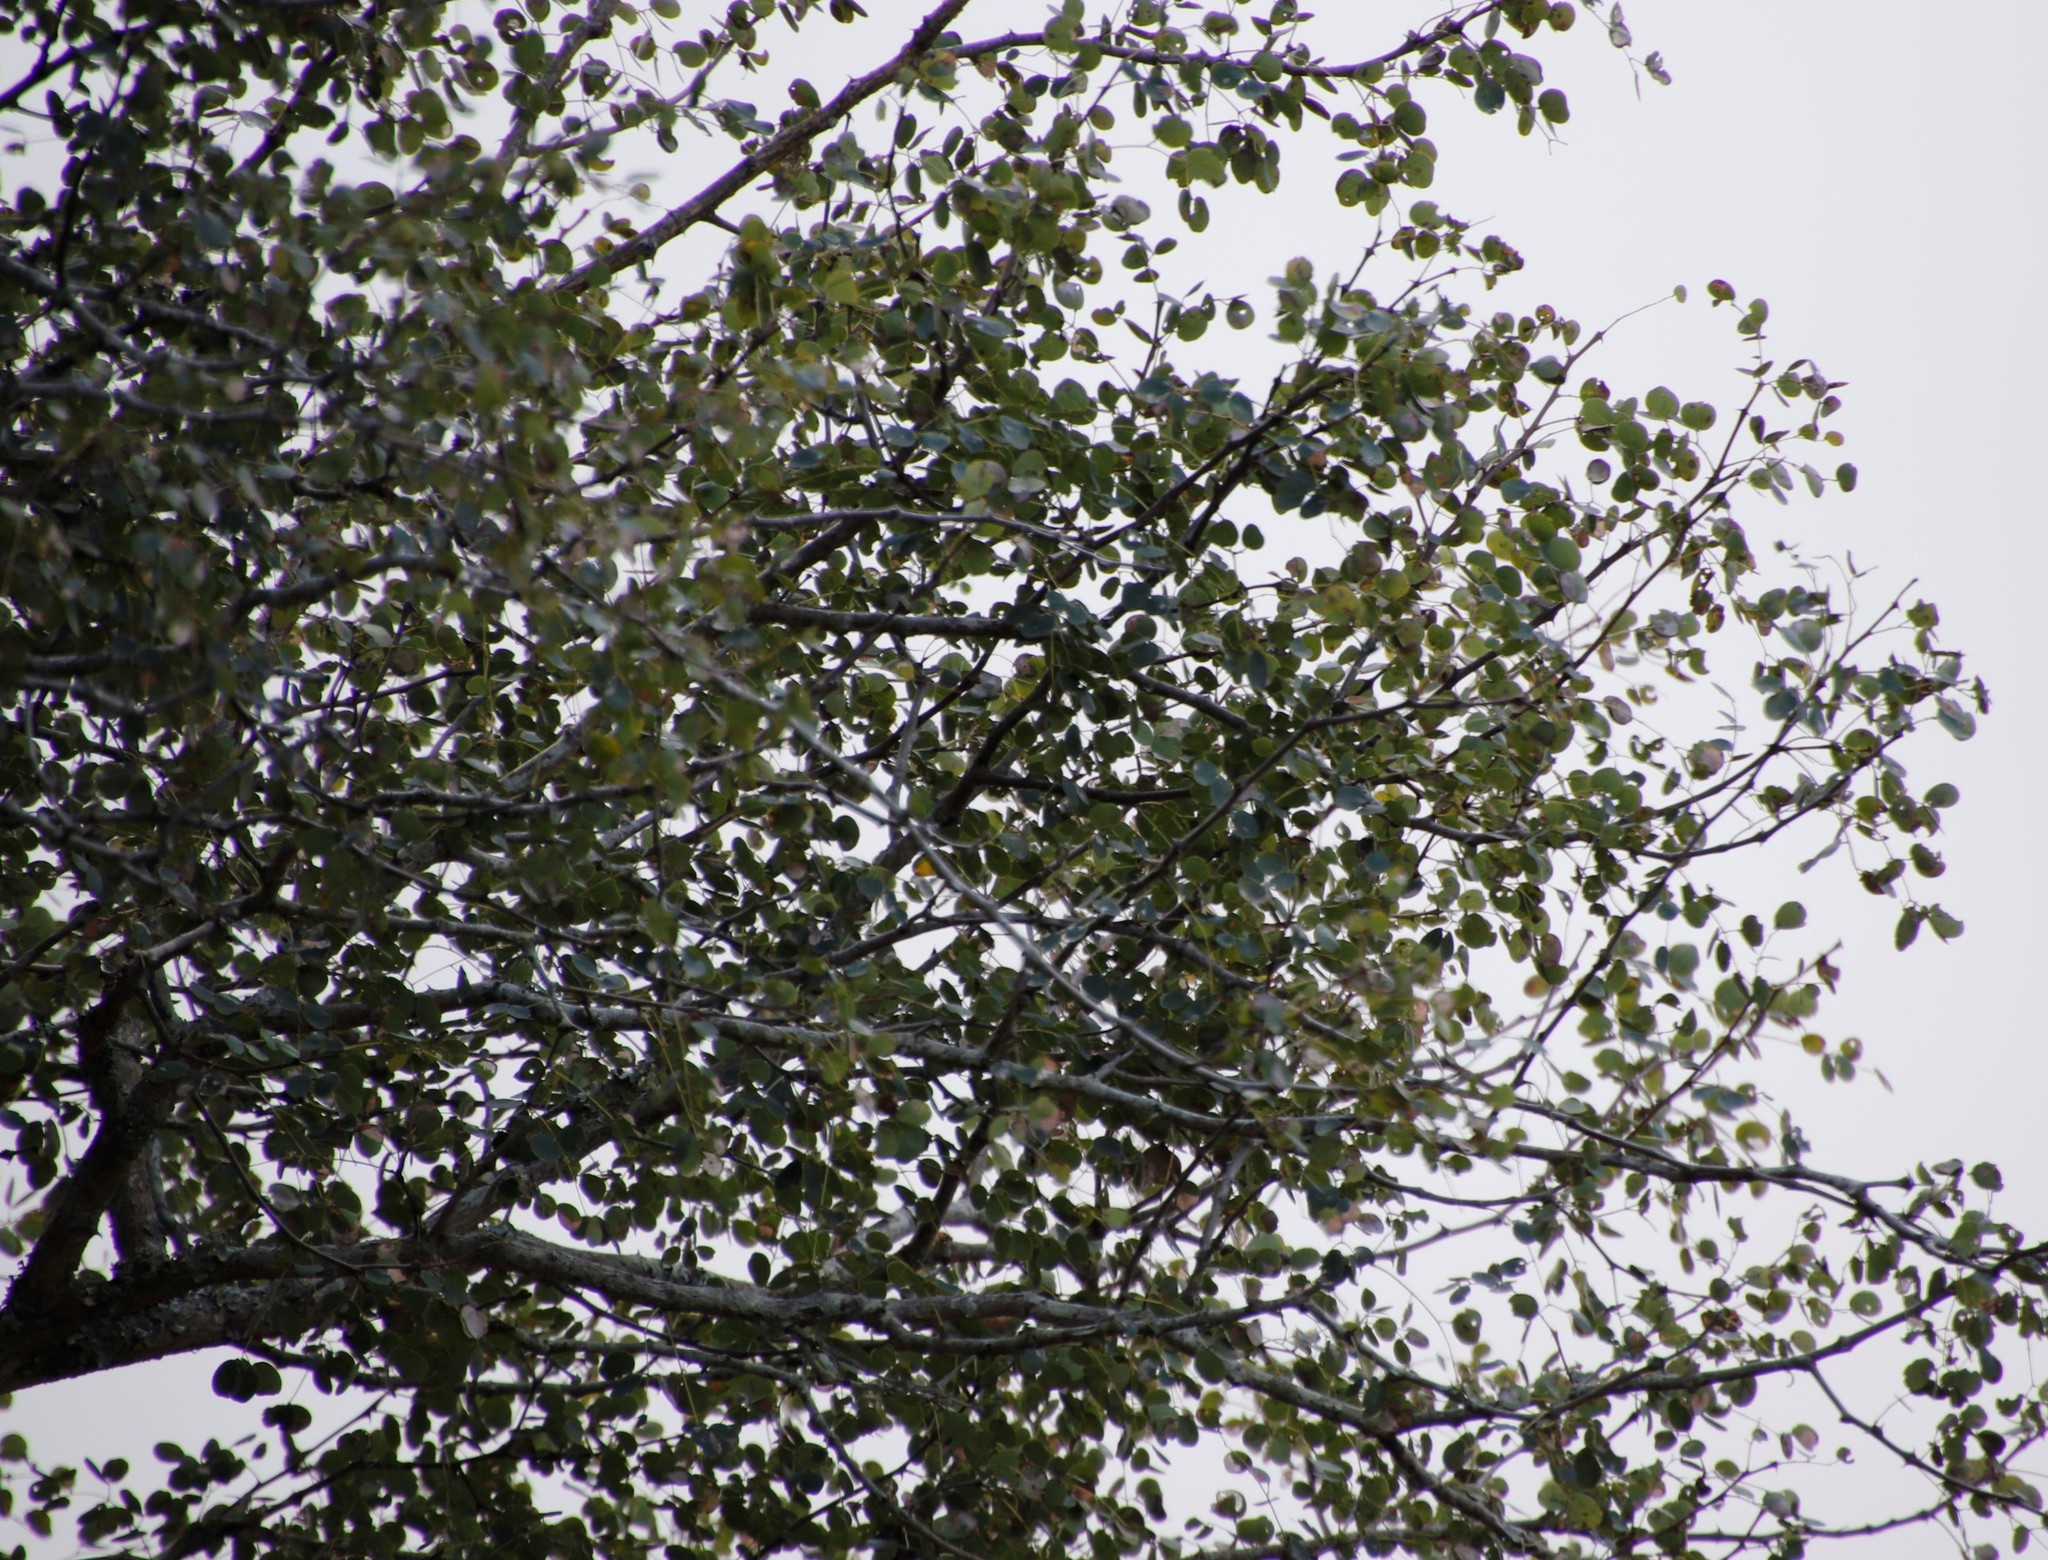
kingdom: Plantae
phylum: Tracheophyta
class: Magnoliopsida
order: Fabales
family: Fabaceae
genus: Senegalia
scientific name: Senegalia nigrescens
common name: Knobthorn
